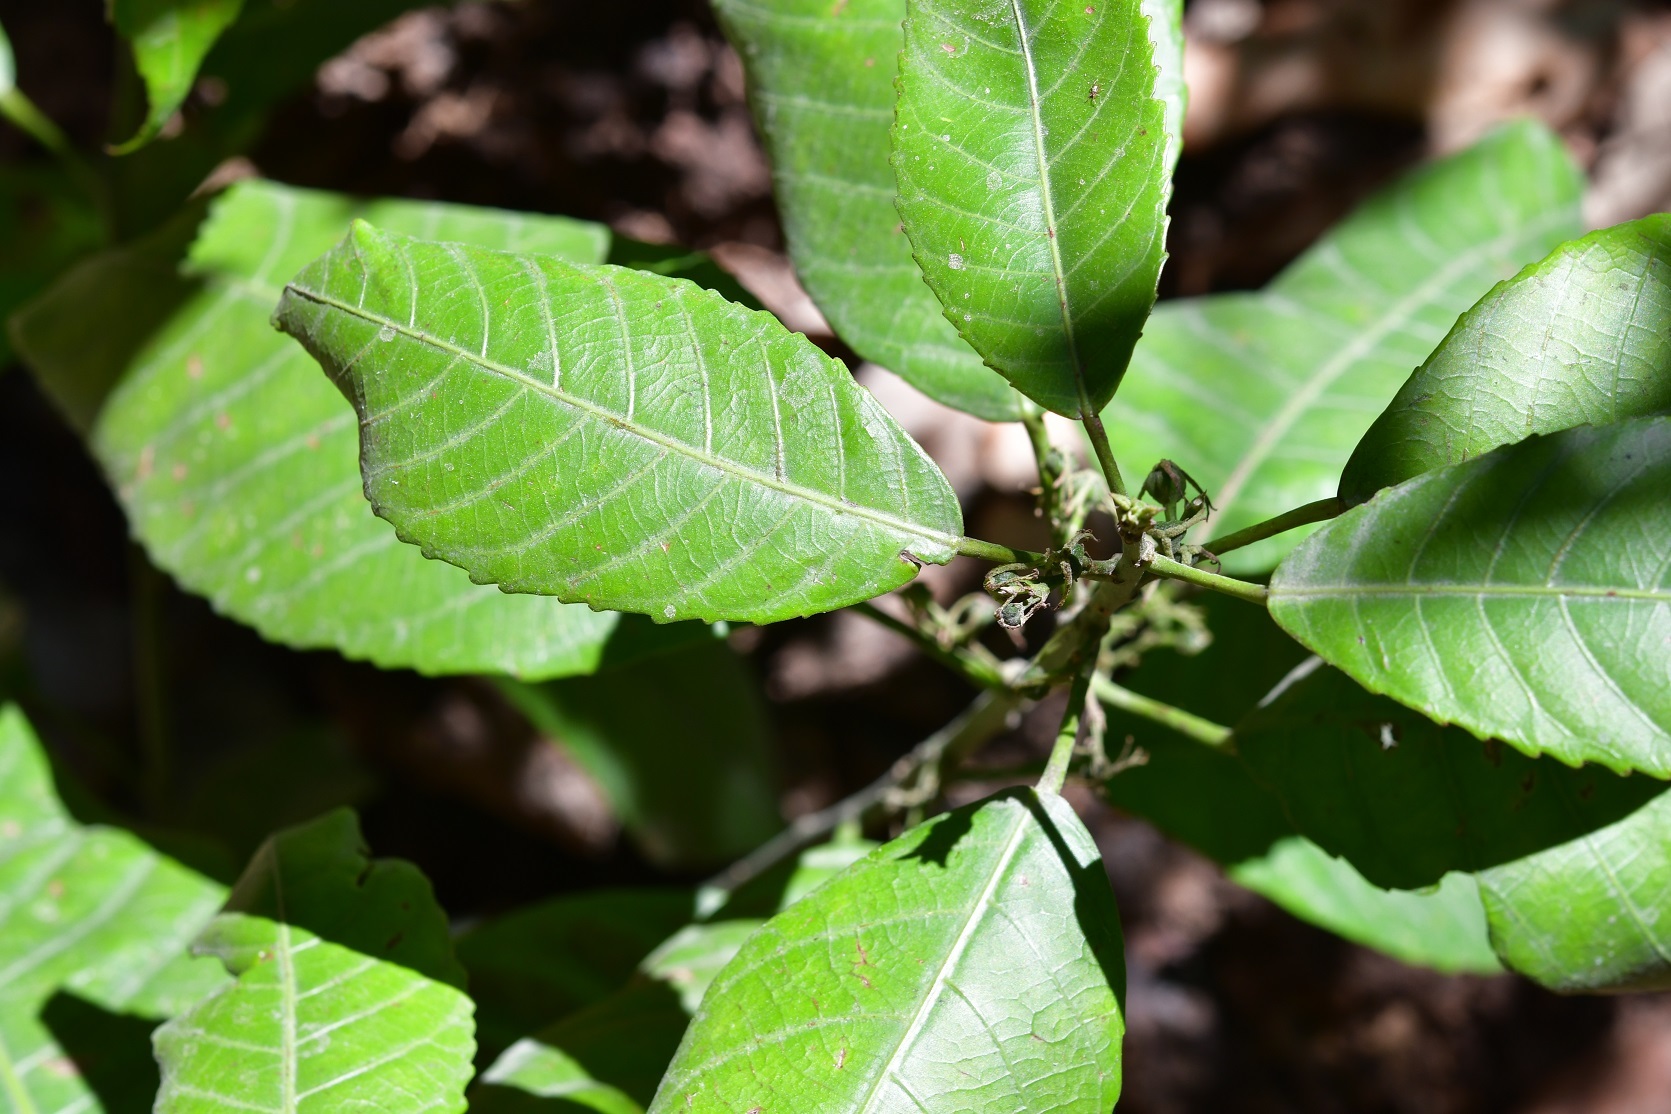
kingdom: Plantae
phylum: Tracheophyta
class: Magnoliopsida
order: Malpighiales
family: Euphorbiaceae
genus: Cleidion
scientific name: Cleidion castaneifolium
